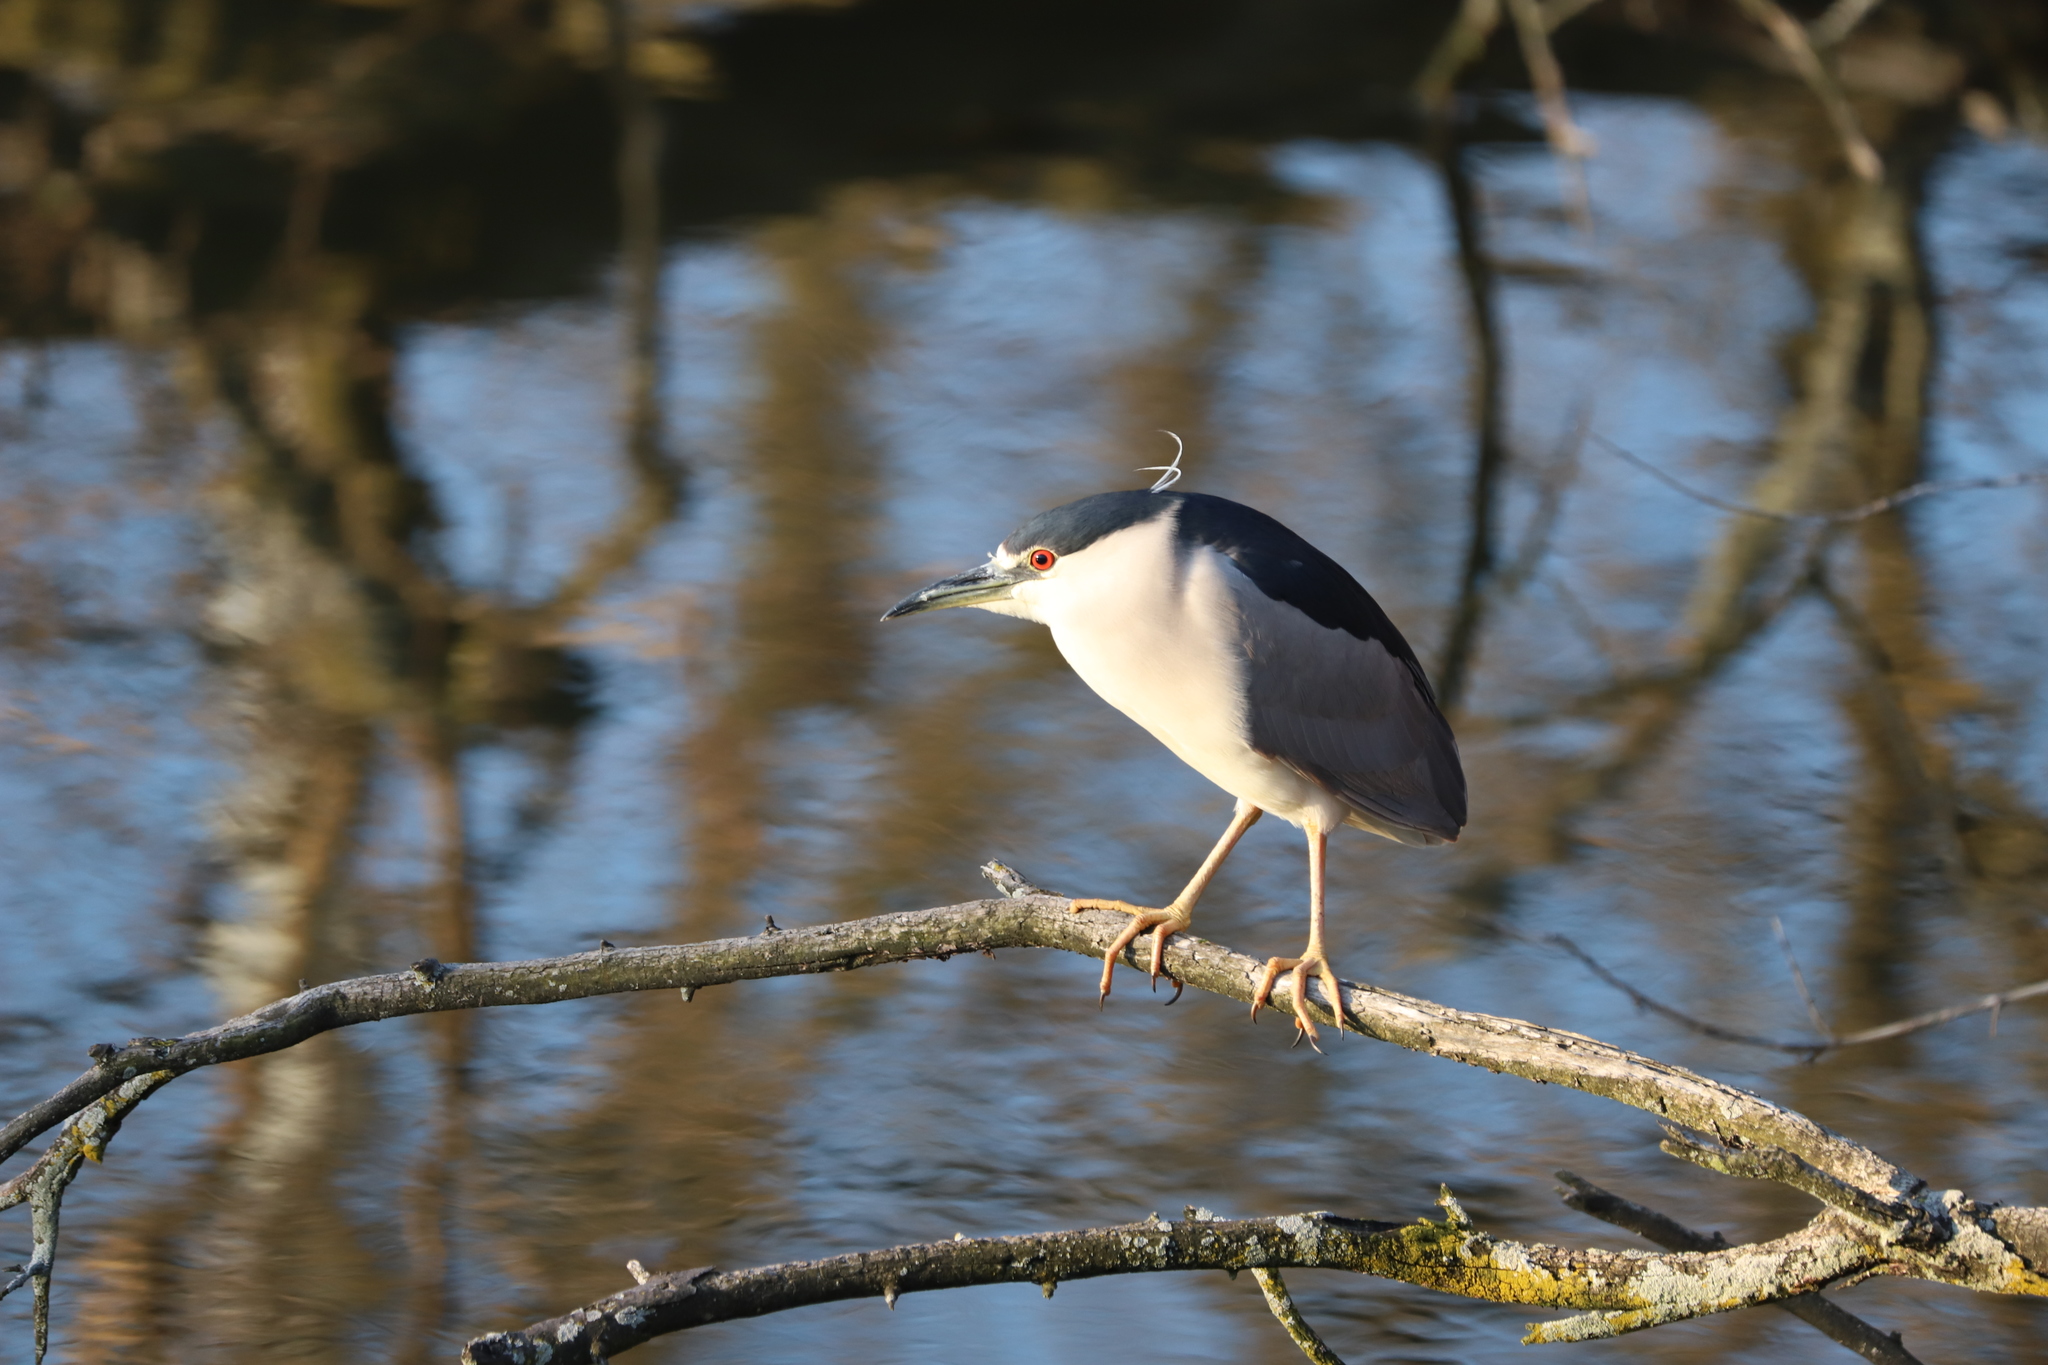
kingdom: Animalia
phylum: Chordata
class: Aves
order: Pelecaniformes
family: Ardeidae
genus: Nycticorax
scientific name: Nycticorax nycticorax
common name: Black-crowned night heron
